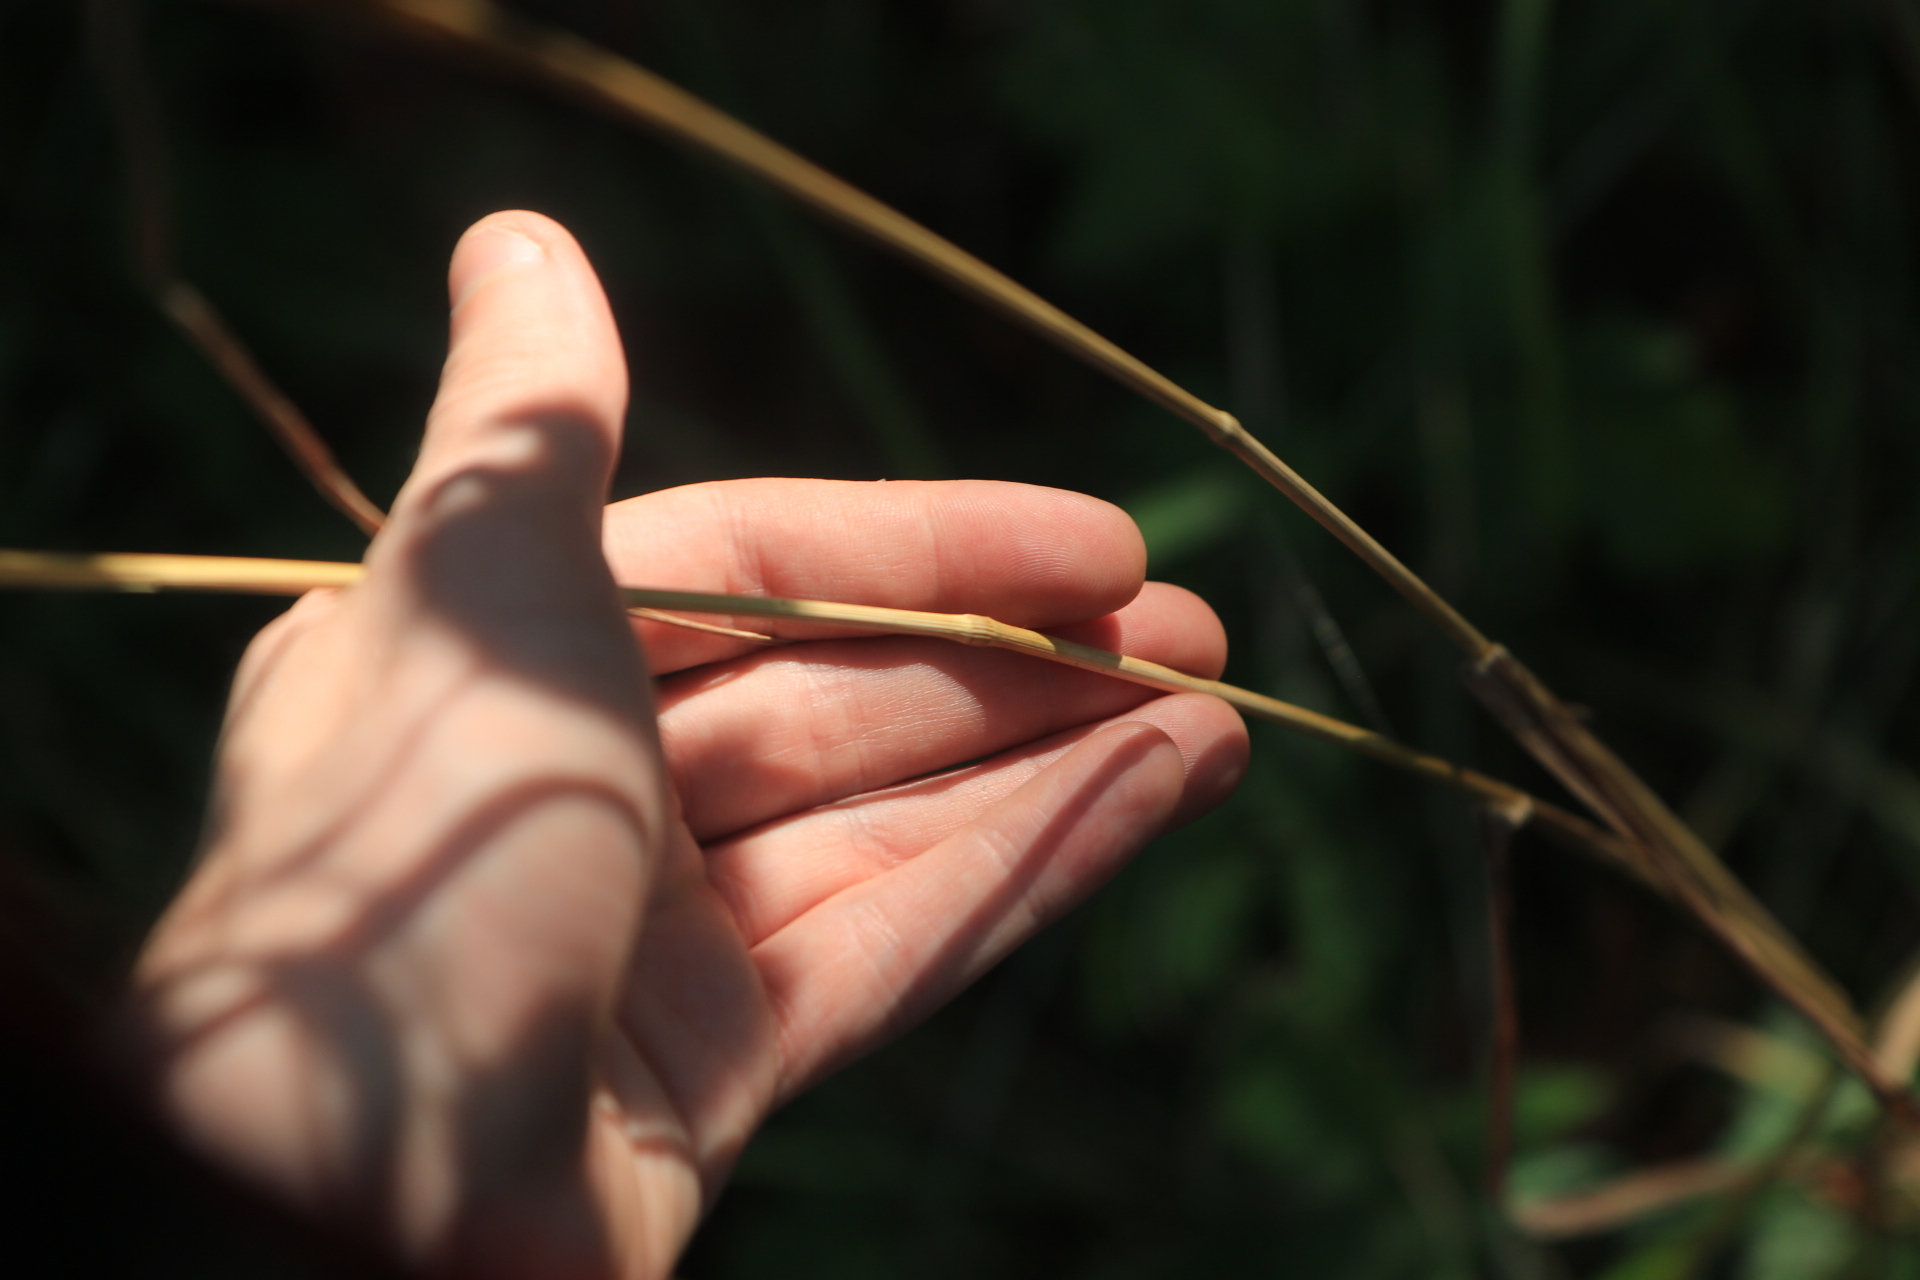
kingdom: Plantae
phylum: Tracheophyta
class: Liliopsida
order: Poales
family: Poaceae
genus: Dactylis
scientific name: Dactylis glomerata
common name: Orchardgrass
